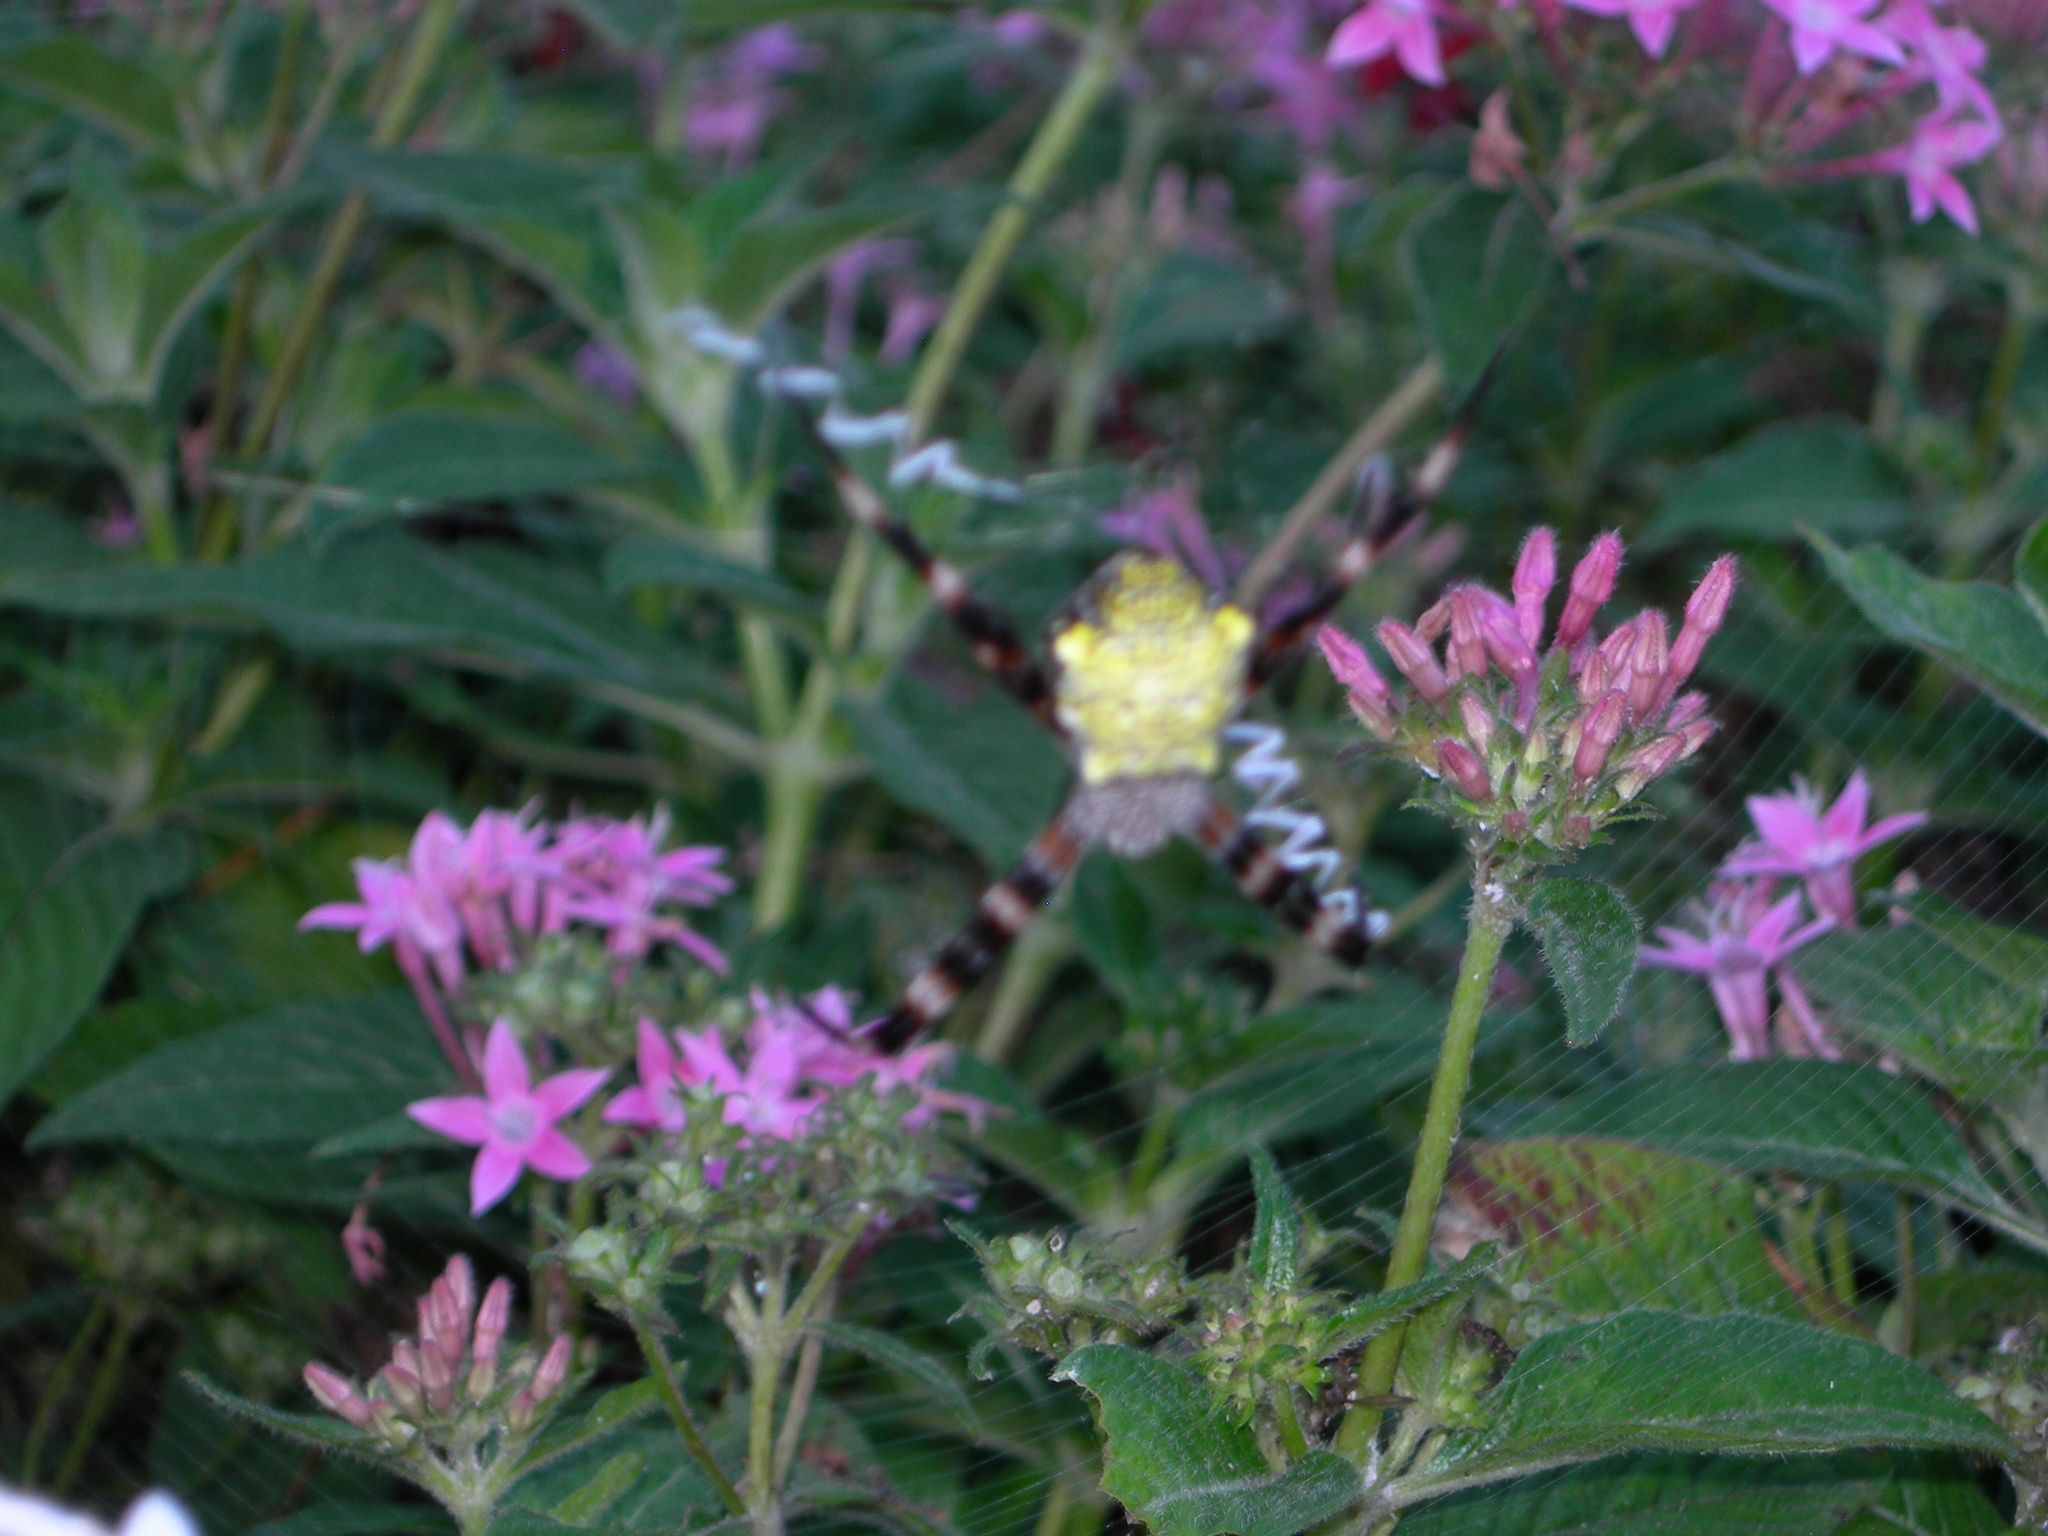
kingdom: Animalia
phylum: Arthropoda
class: Arachnida
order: Araneae
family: Araneidae
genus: Argiope
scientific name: Argiope appensa
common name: Garden spider
